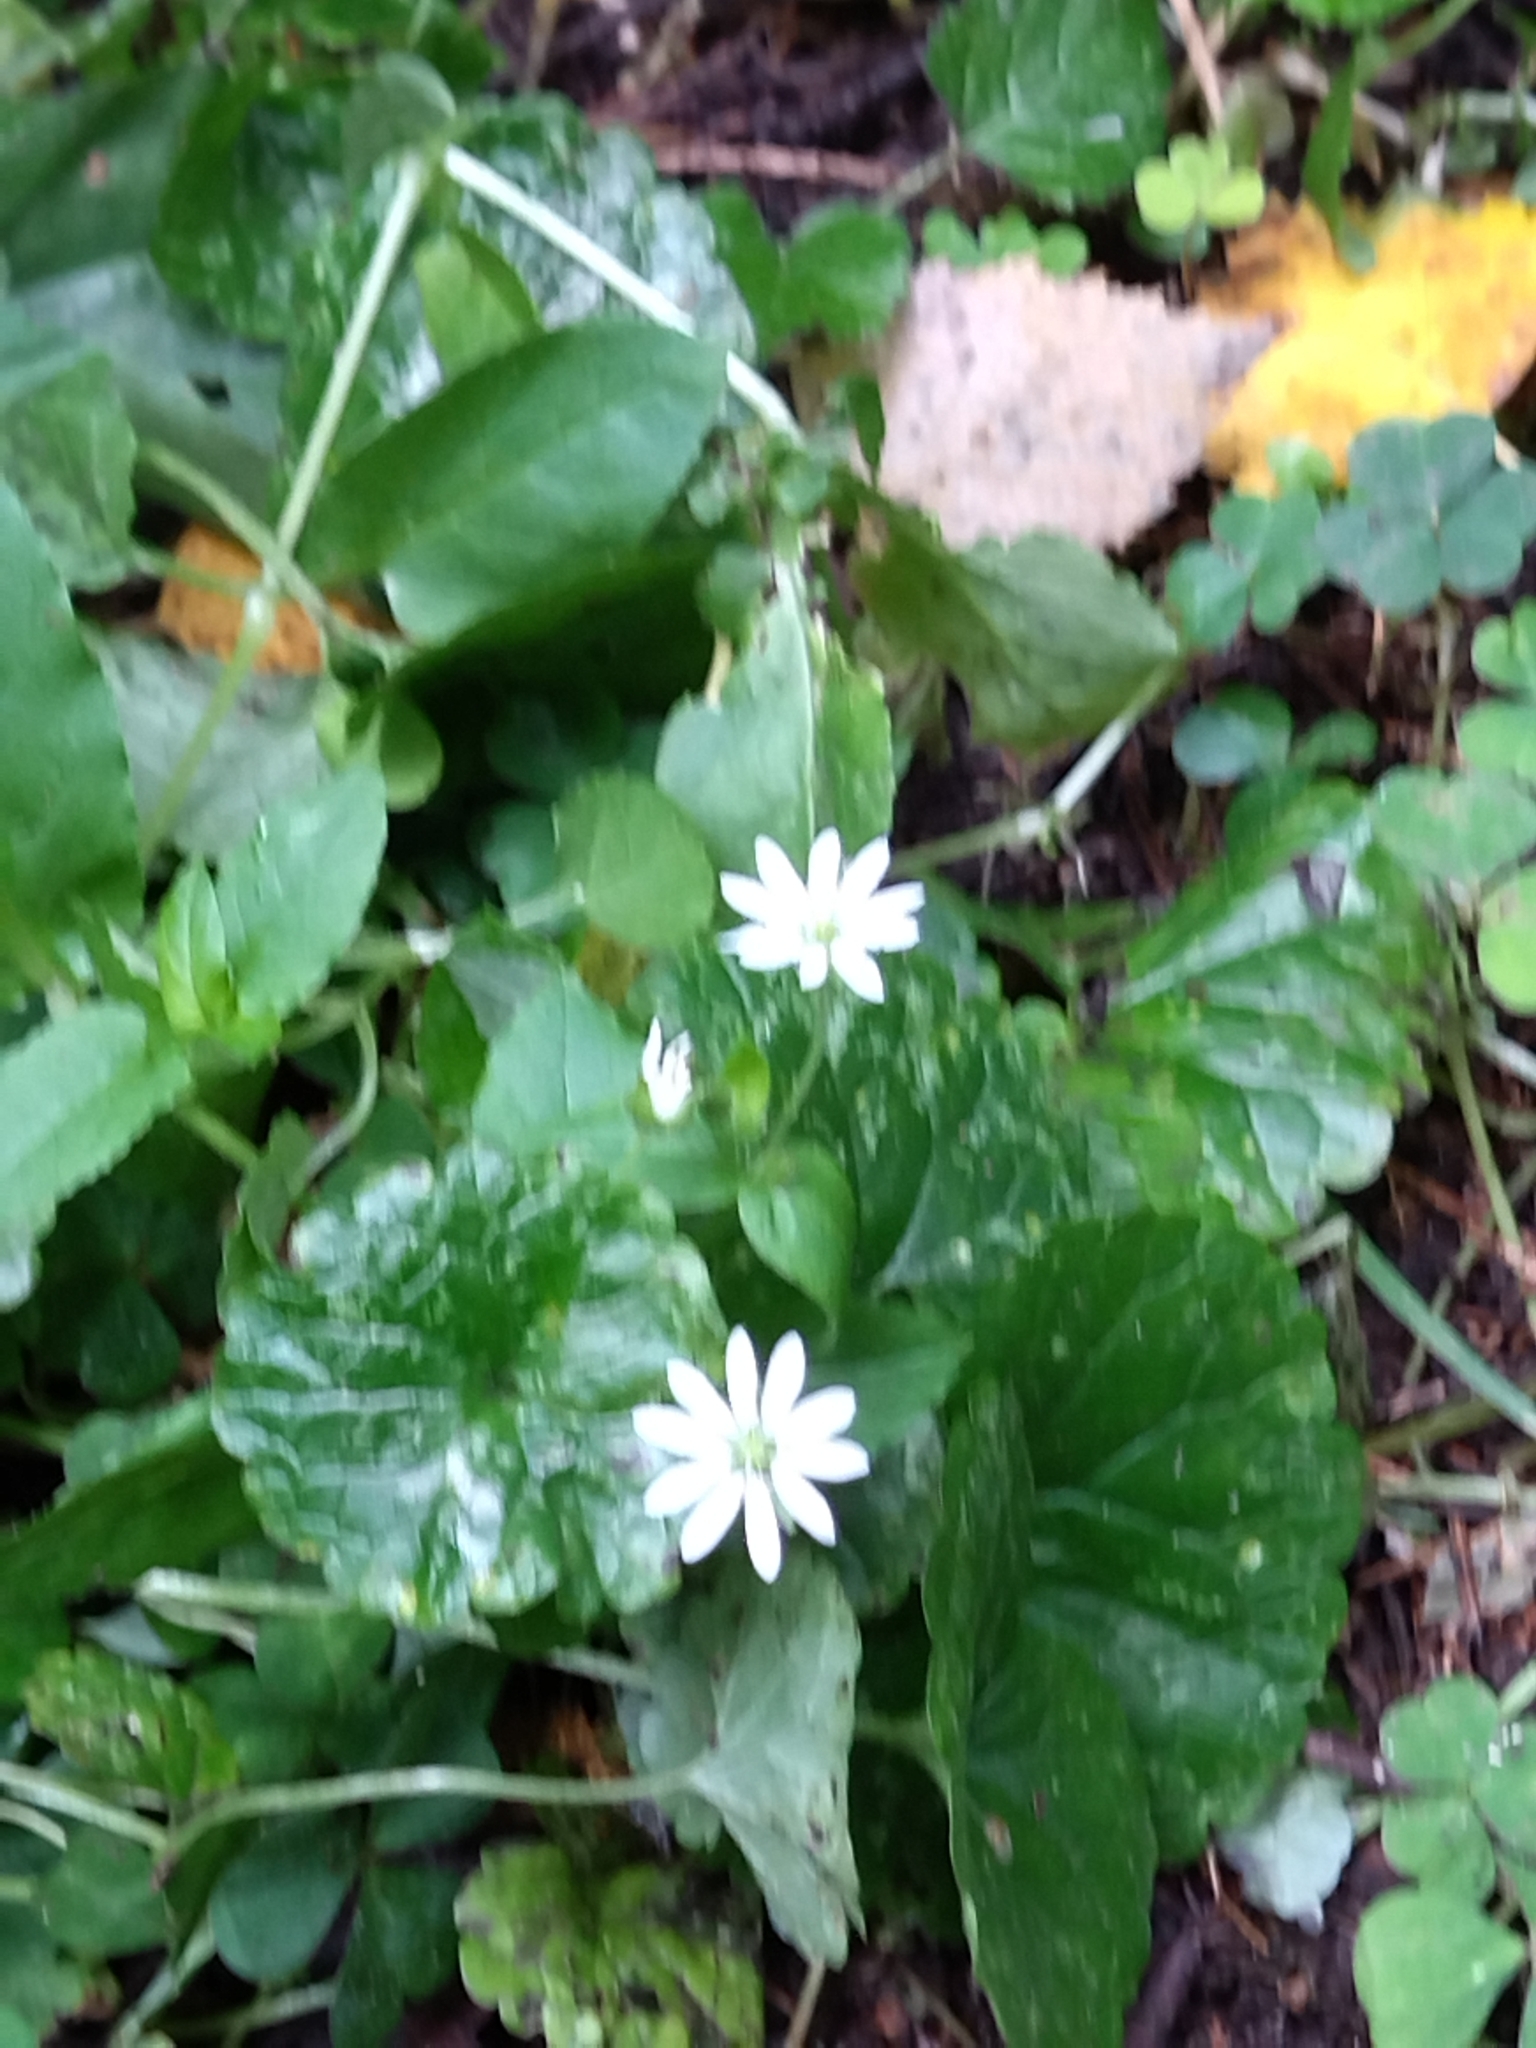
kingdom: Plantae
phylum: Tracheophyta
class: Magnoliopsida
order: Caryophyllales
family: Caryophyllaceae
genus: Stellaria
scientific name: Stellaria aquatica
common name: Water chickweed
